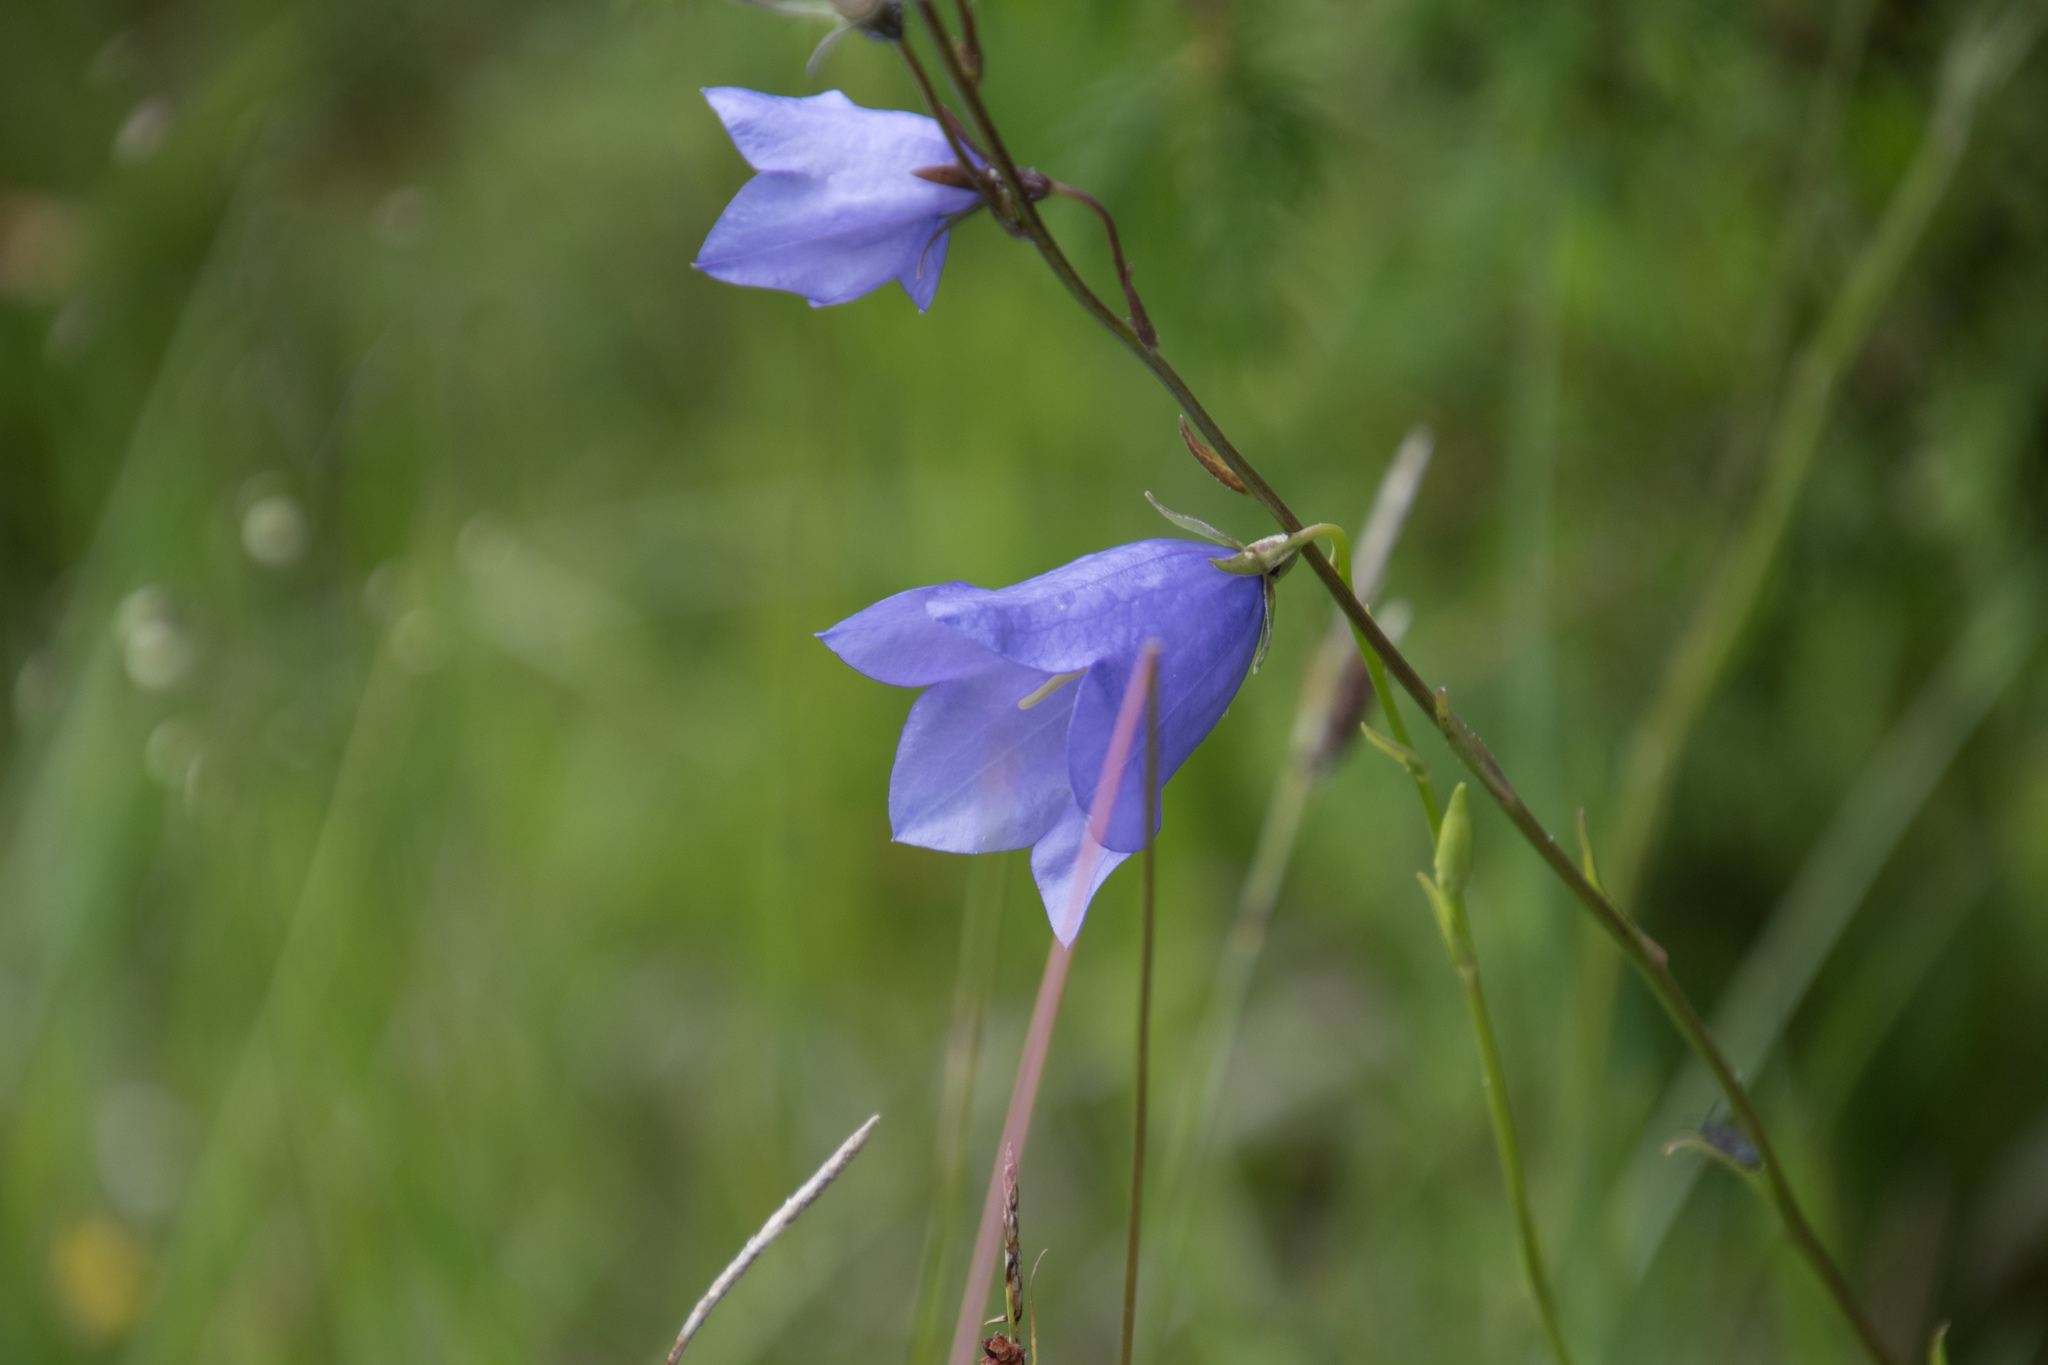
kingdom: Plantae
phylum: Tracheophyta
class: Magnoliopsida
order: Asterales
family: Campanulaceae
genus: Campanula
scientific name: Campanula persicifolia
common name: Peach-leaved bellflower
